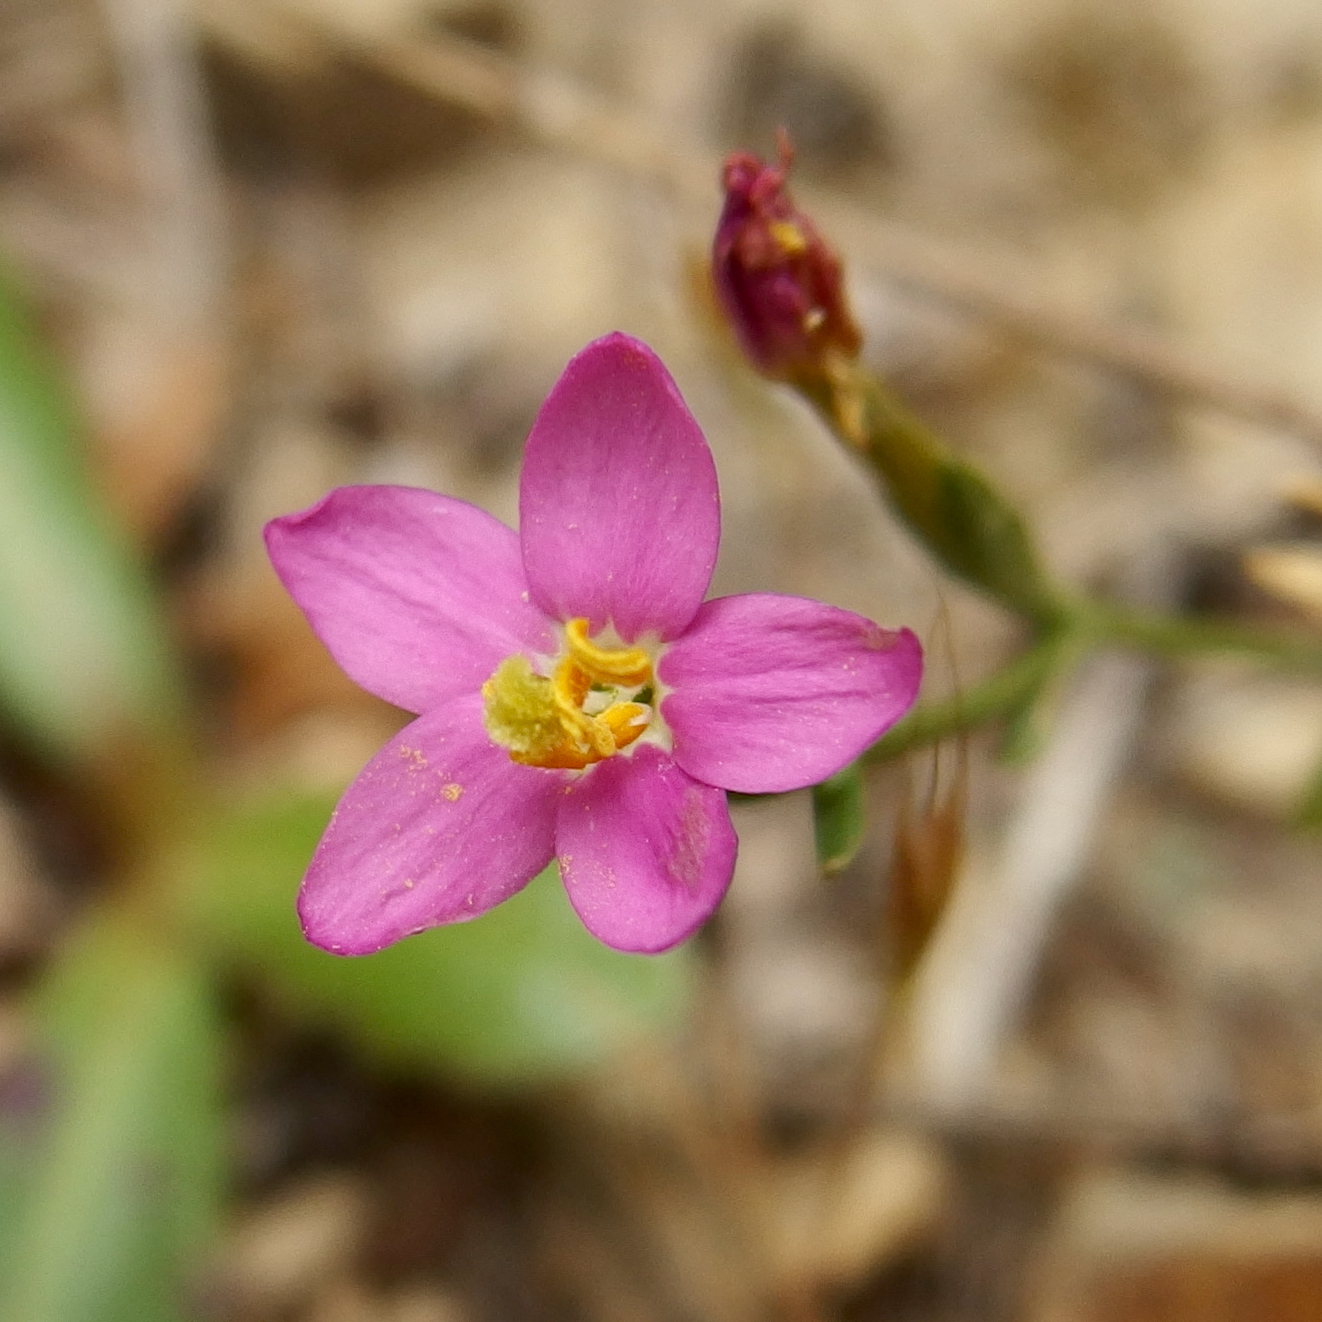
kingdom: Plantae
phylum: Tracheophyta
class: Magnoliopsida
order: Gentianales
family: Gentianaceae
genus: Centaurium
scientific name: Centaurium erythraea
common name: Common centaury
